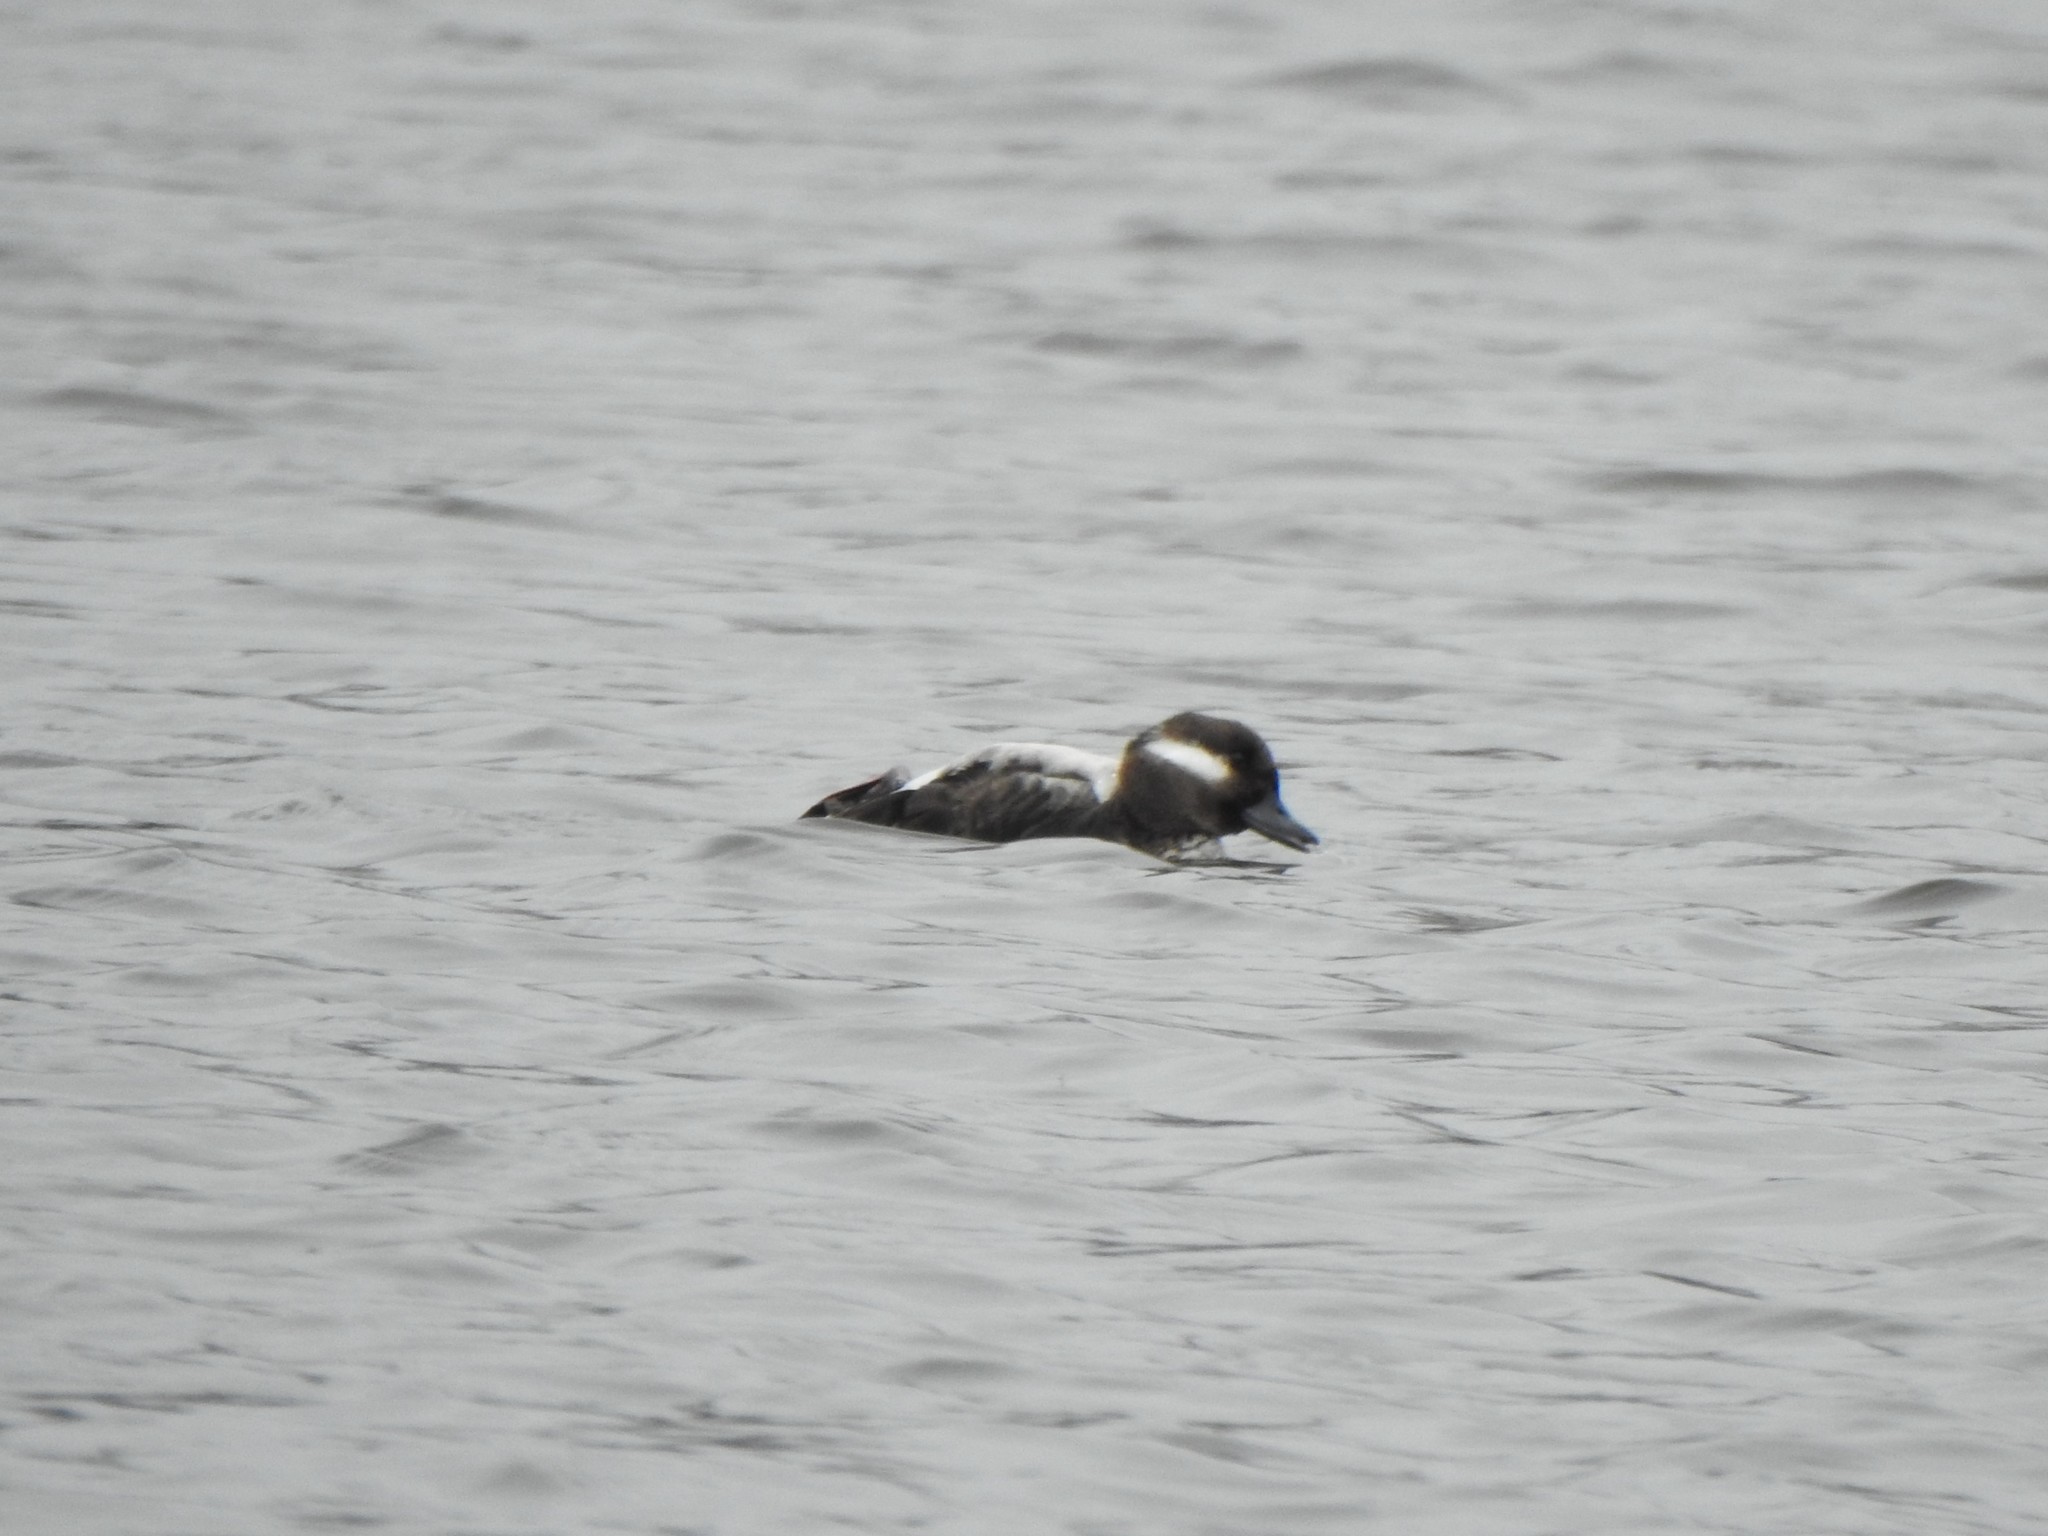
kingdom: Animalia
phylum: Chordata
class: Aves
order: Anseriformes
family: Anatidae
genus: Bucephala
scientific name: Bucephala albeola
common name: Bufflehead
